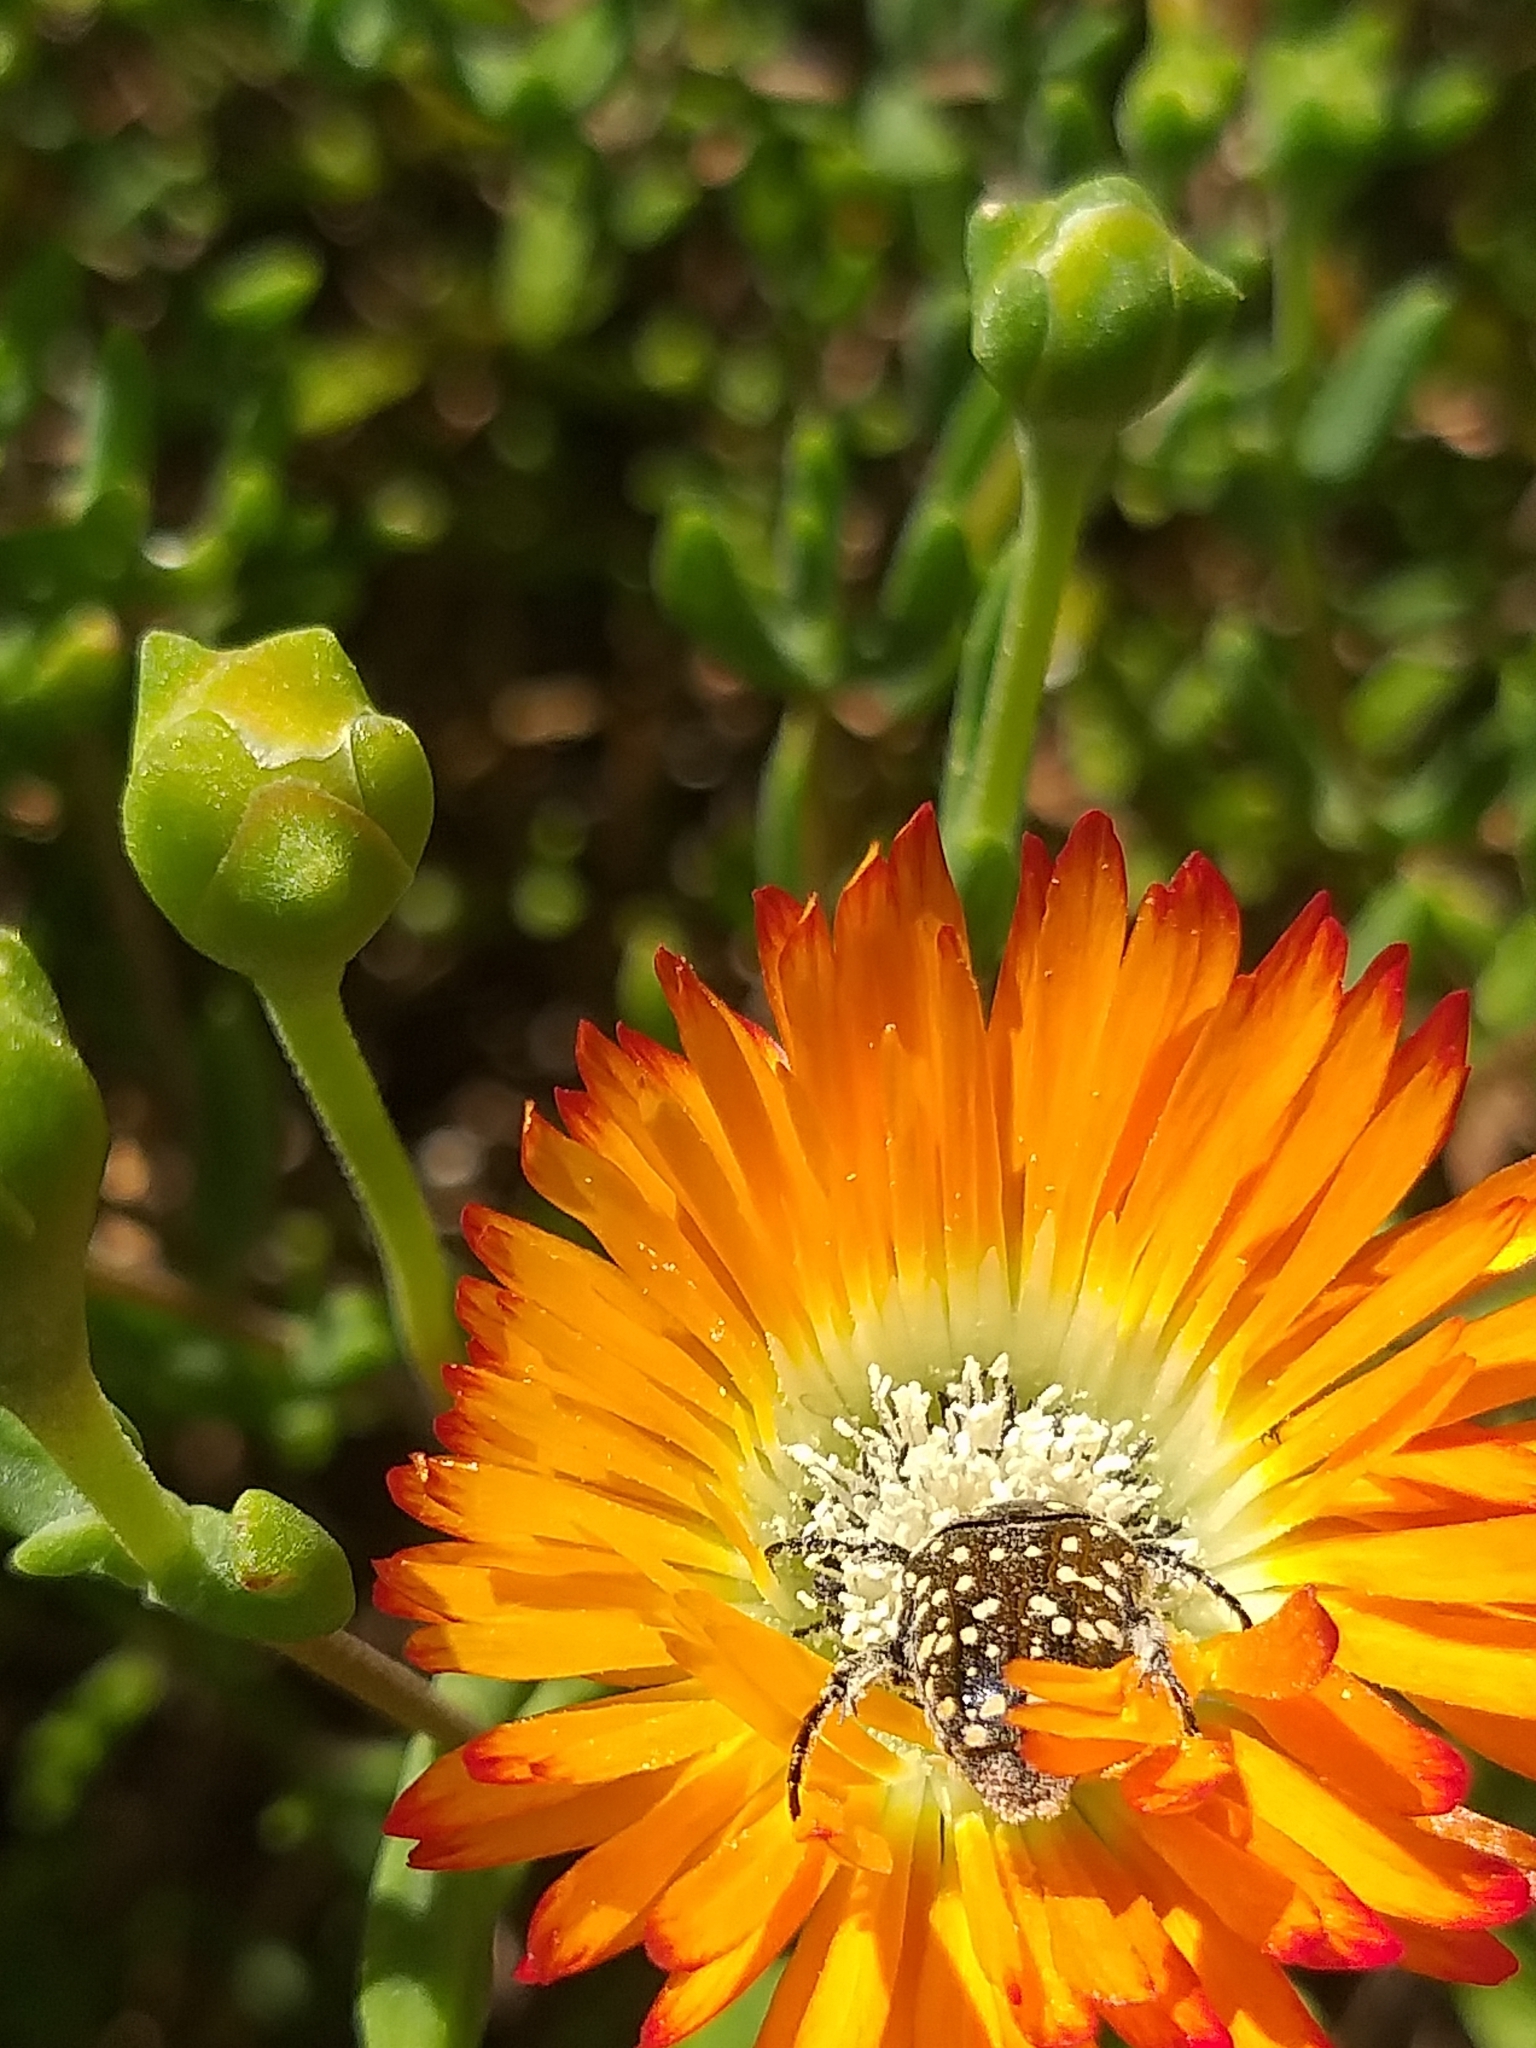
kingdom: Animalia
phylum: Arthropoda
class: Insecta
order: Coleoptera
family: Scarabaeidae
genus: Oxythyrea
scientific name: Oxythyrea
